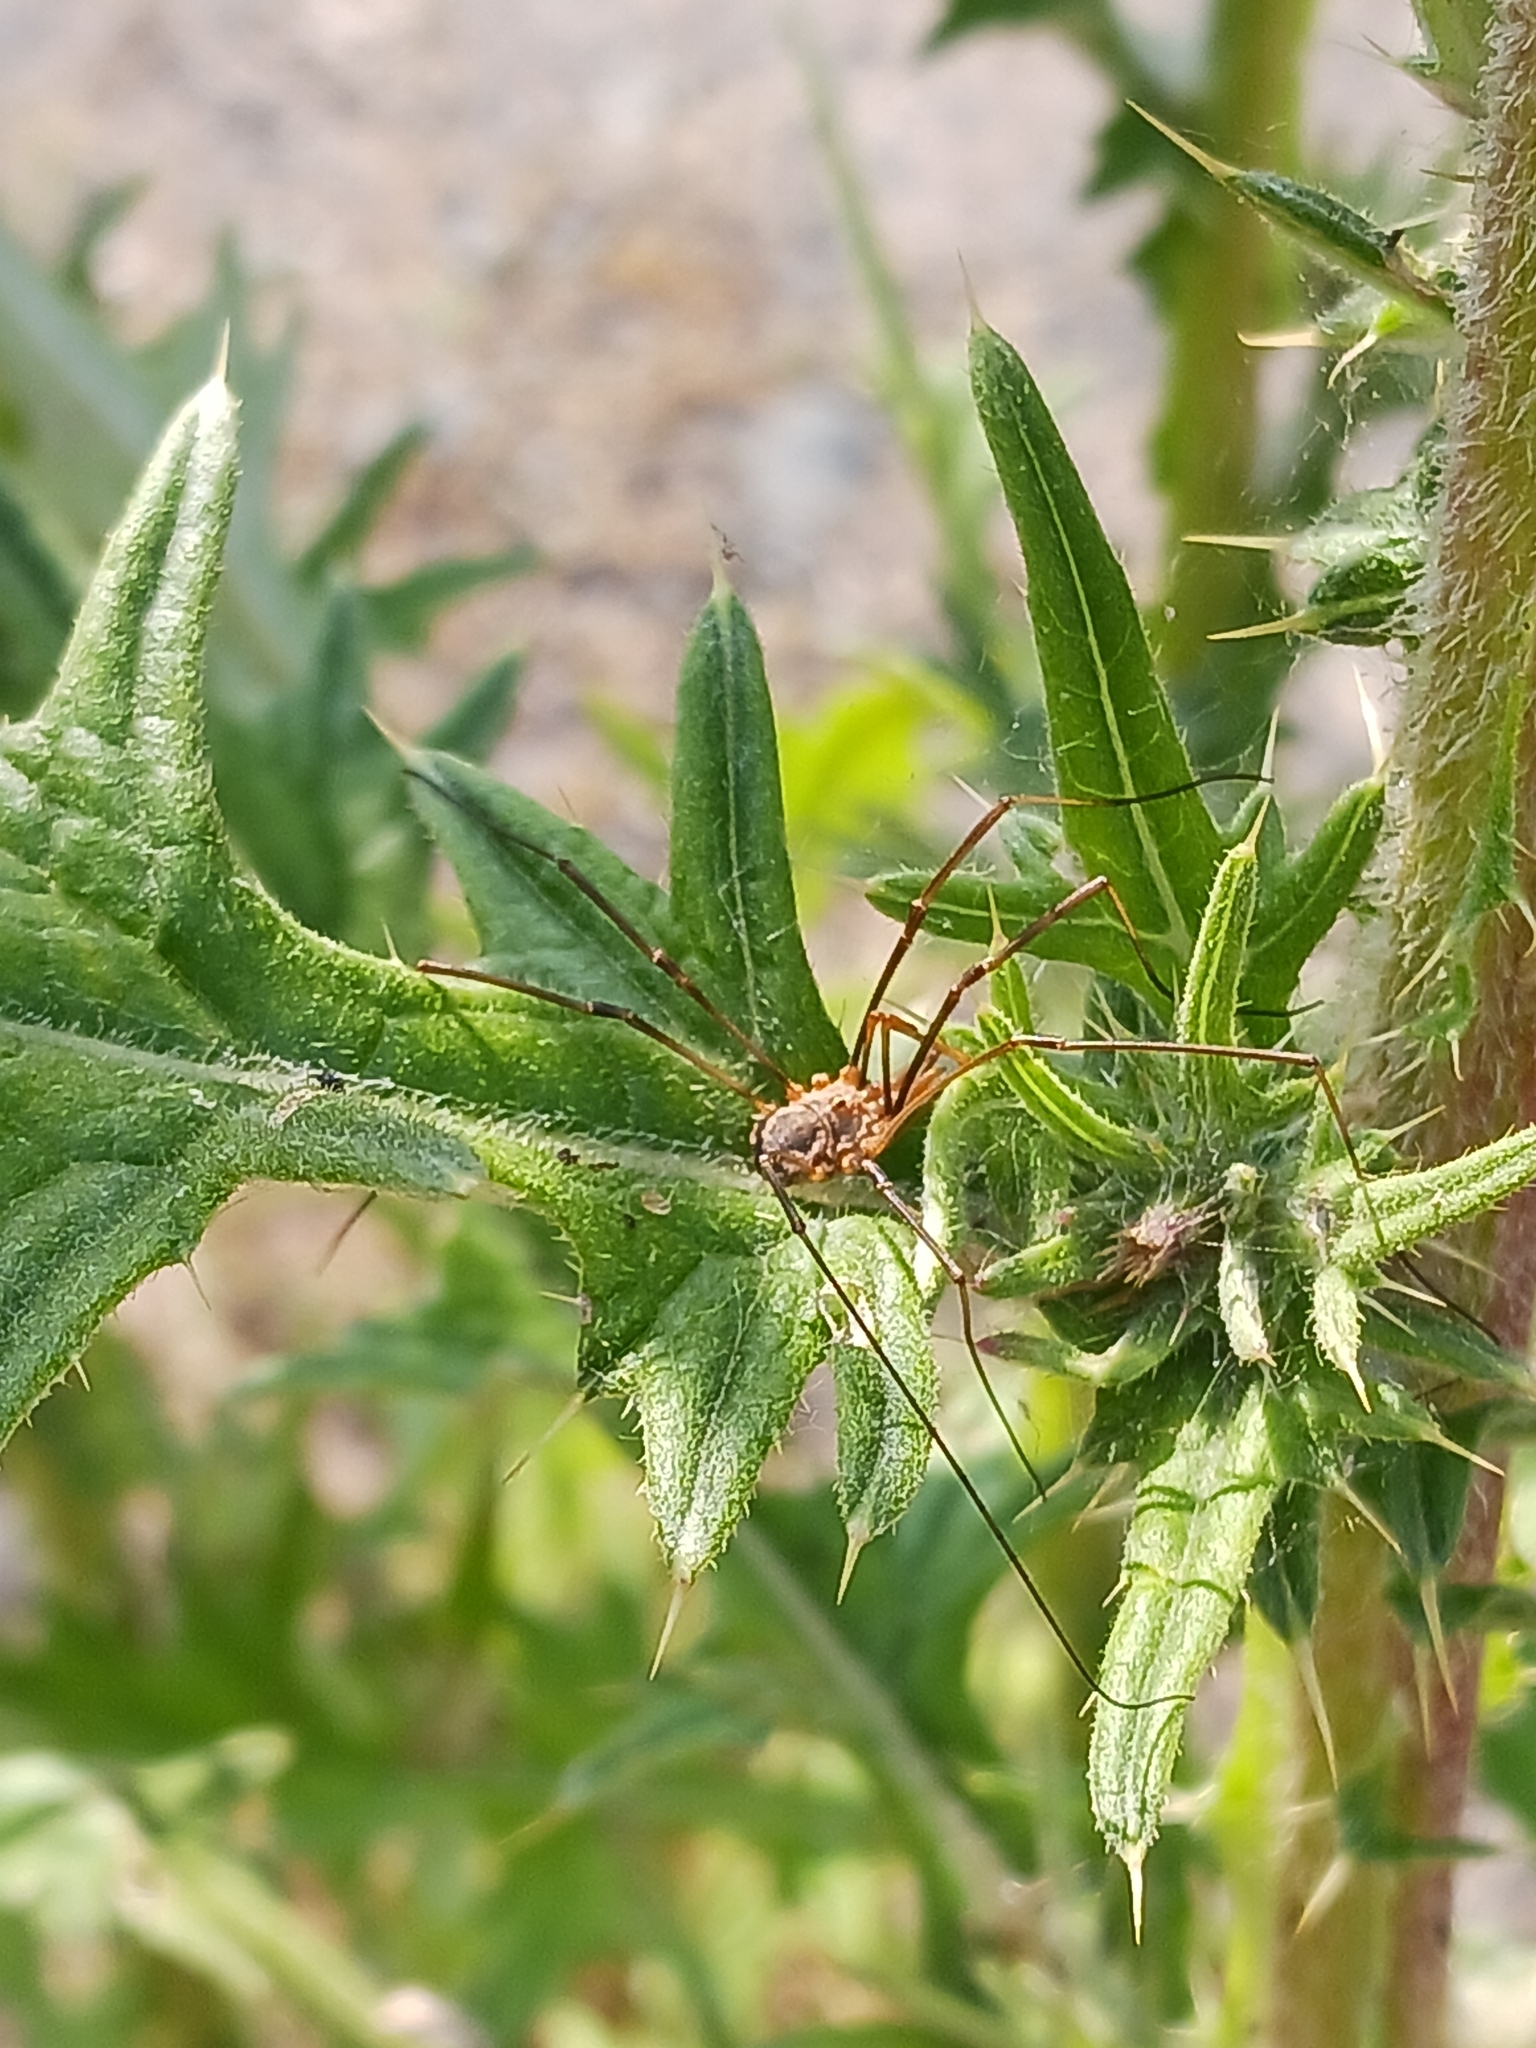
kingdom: Animalia
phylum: Arthropoda
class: Arachnida
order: Opiliones
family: Phalangiidae
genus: Phalangium
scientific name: Phalangium opilio
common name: Daddy longleg
